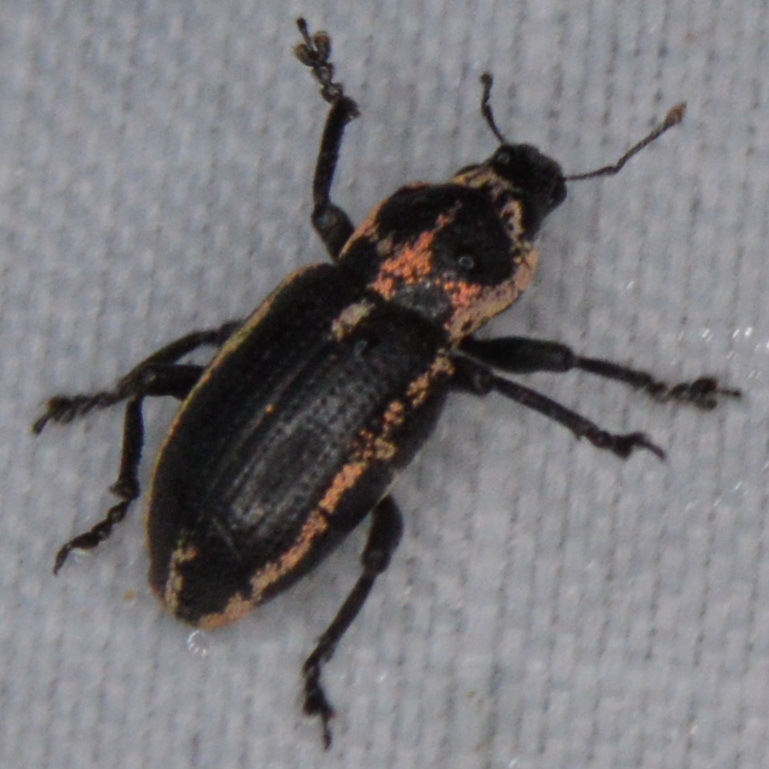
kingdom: Animalia
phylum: Arthropoda
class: Insecta
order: Coleoptera
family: Curculionidae
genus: Eudiagogus
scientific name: Eudiagogus pulcher
